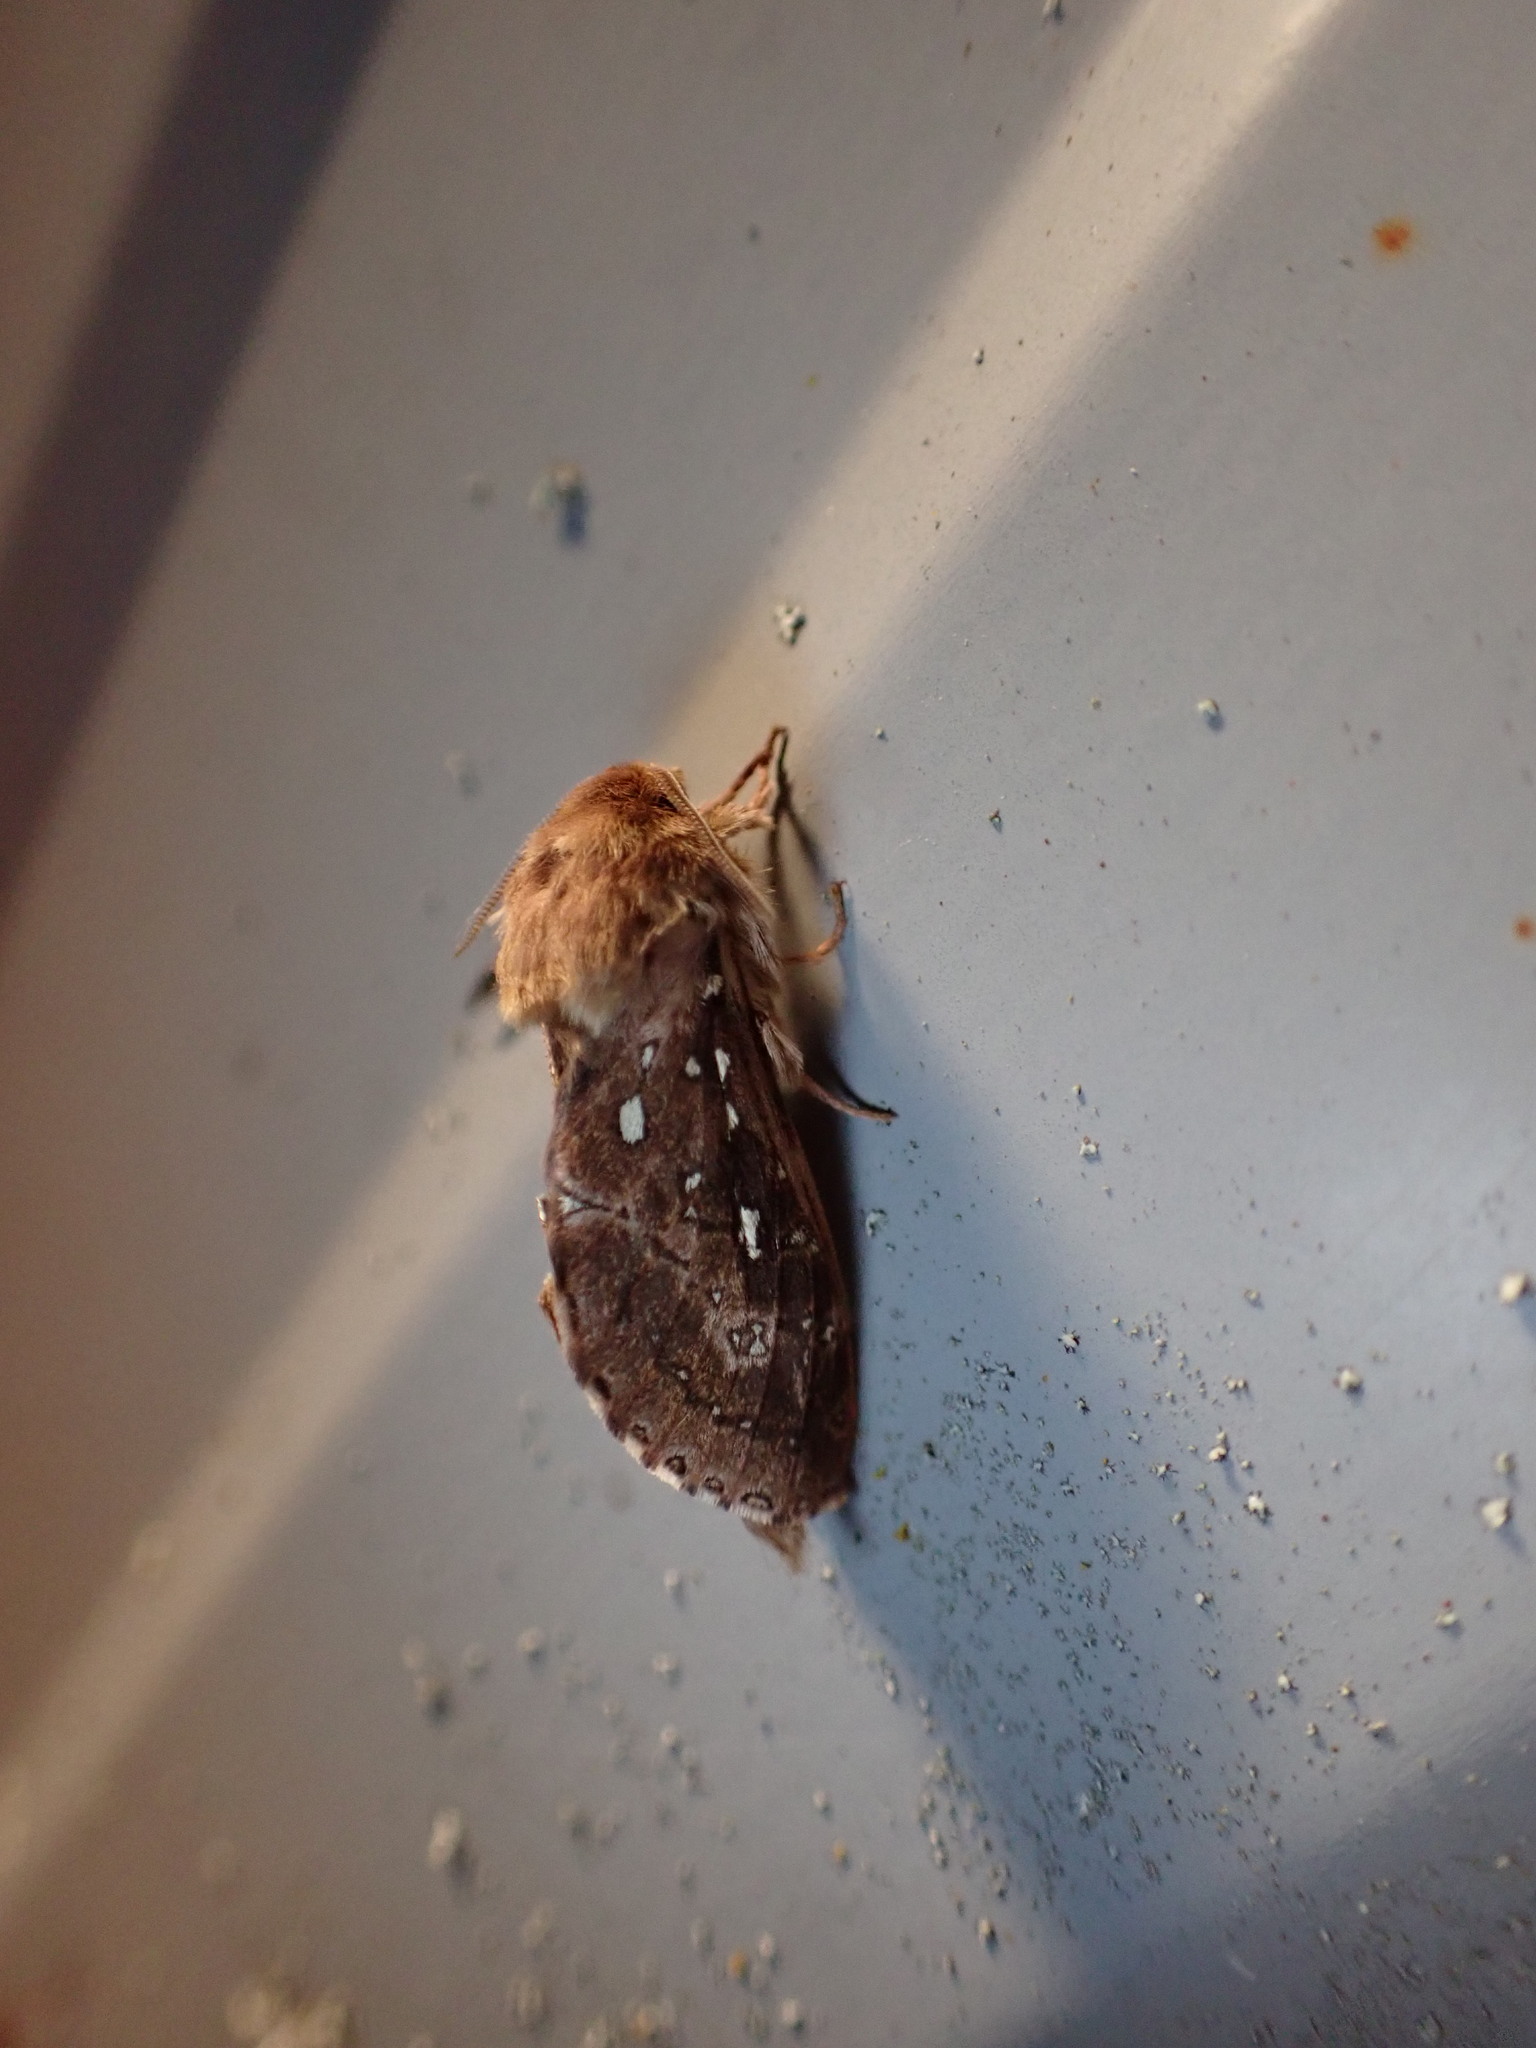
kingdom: Animalia
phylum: Arthropoda
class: Insecta
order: Lepidoptera
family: Hepialidae
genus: Wiseana
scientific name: Wiseana cervinata
